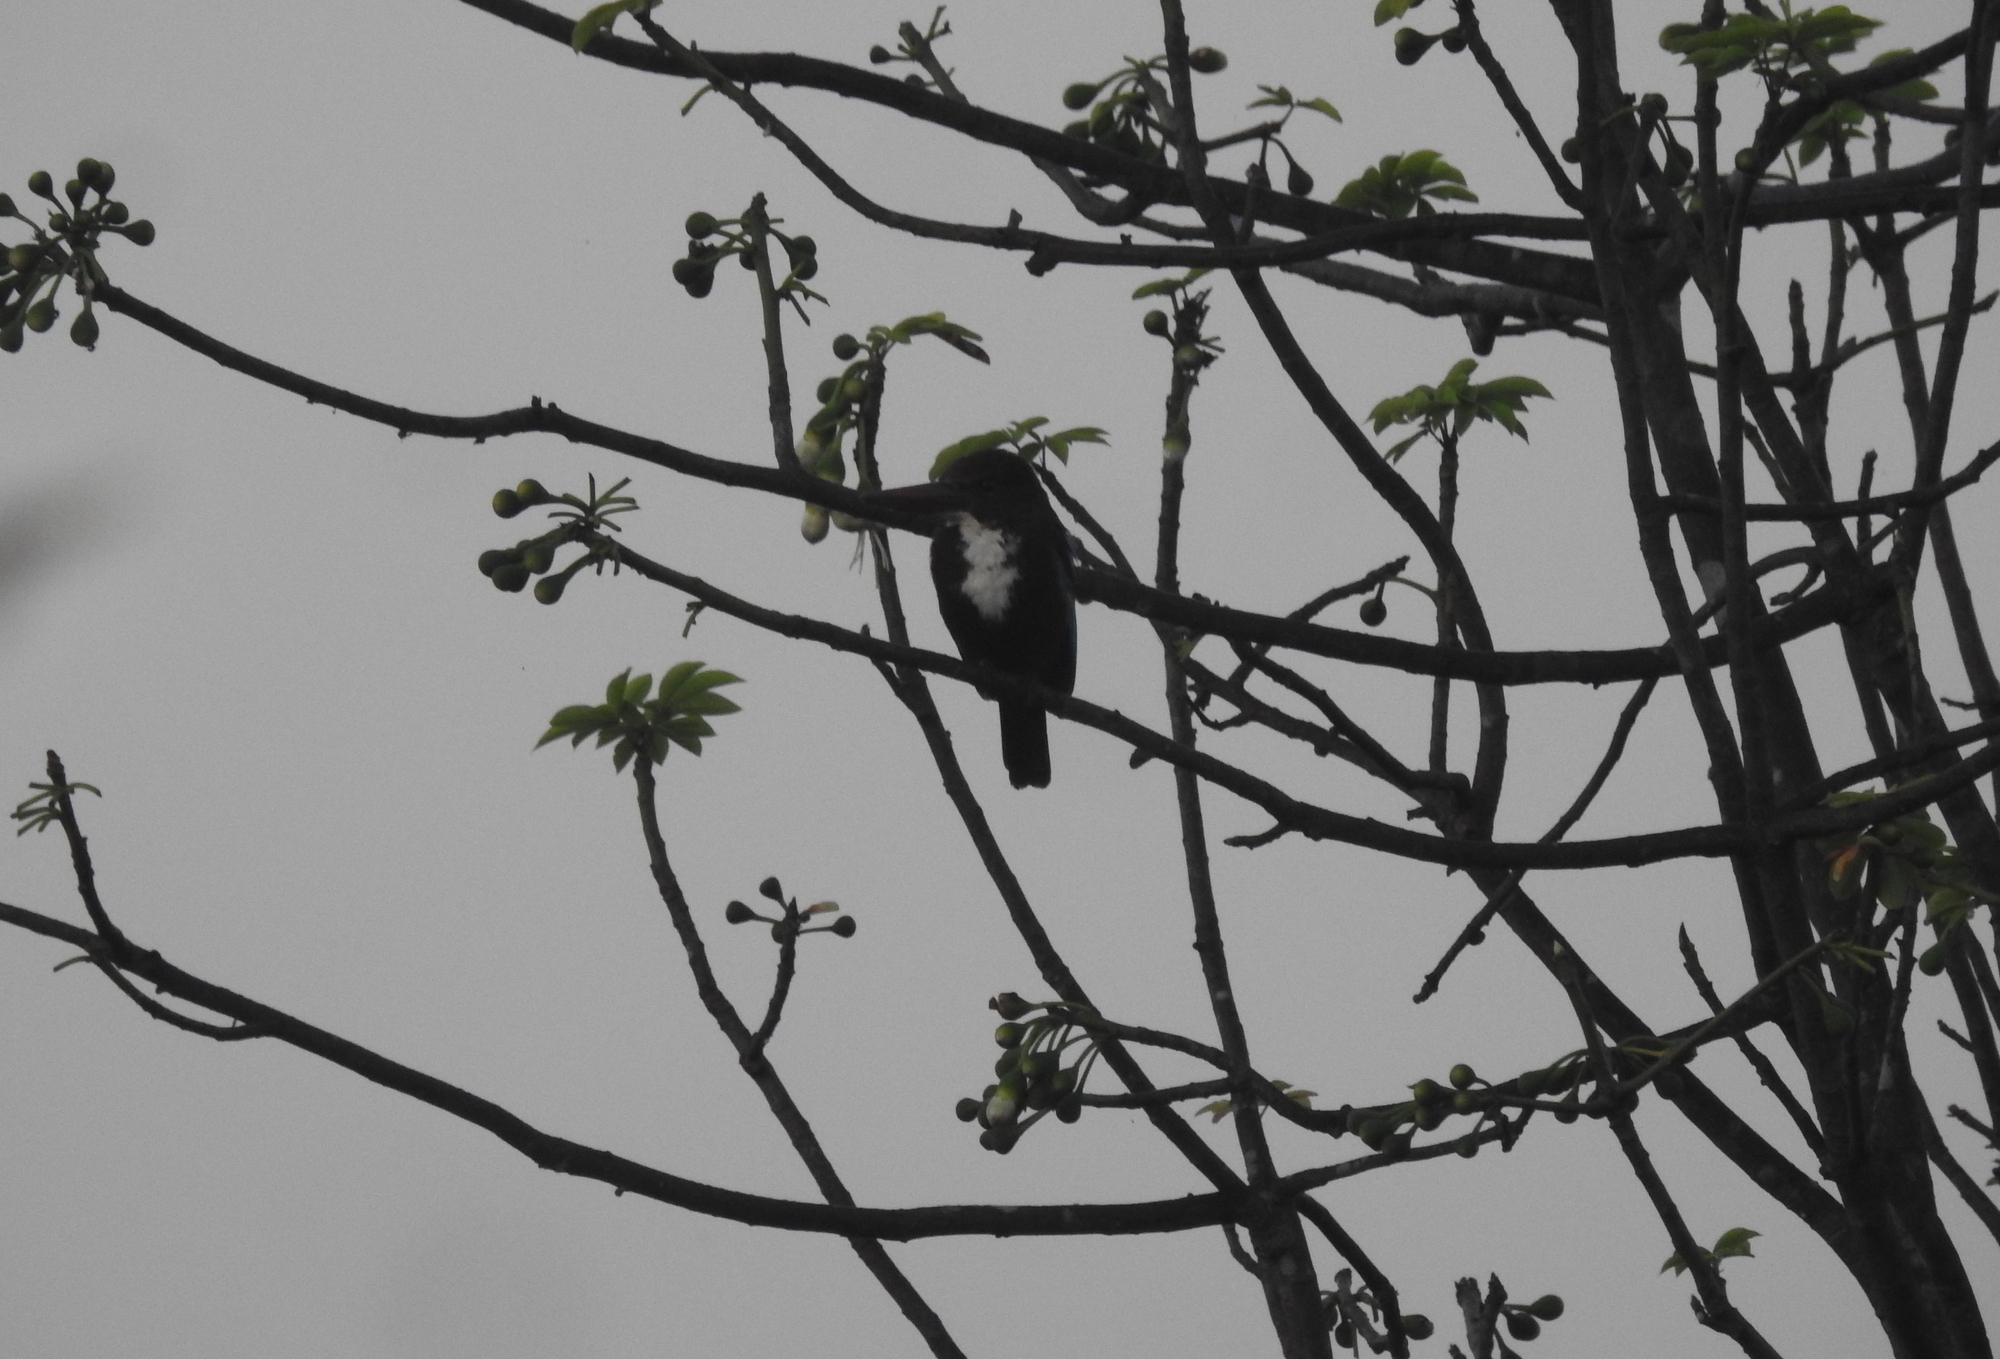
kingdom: Animalia
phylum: Chordata
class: Aves
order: Coraciiformes
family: Alcedinidae
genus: Halcyon
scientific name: Halcyon smyrnensis
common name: White-throated kingfisher
